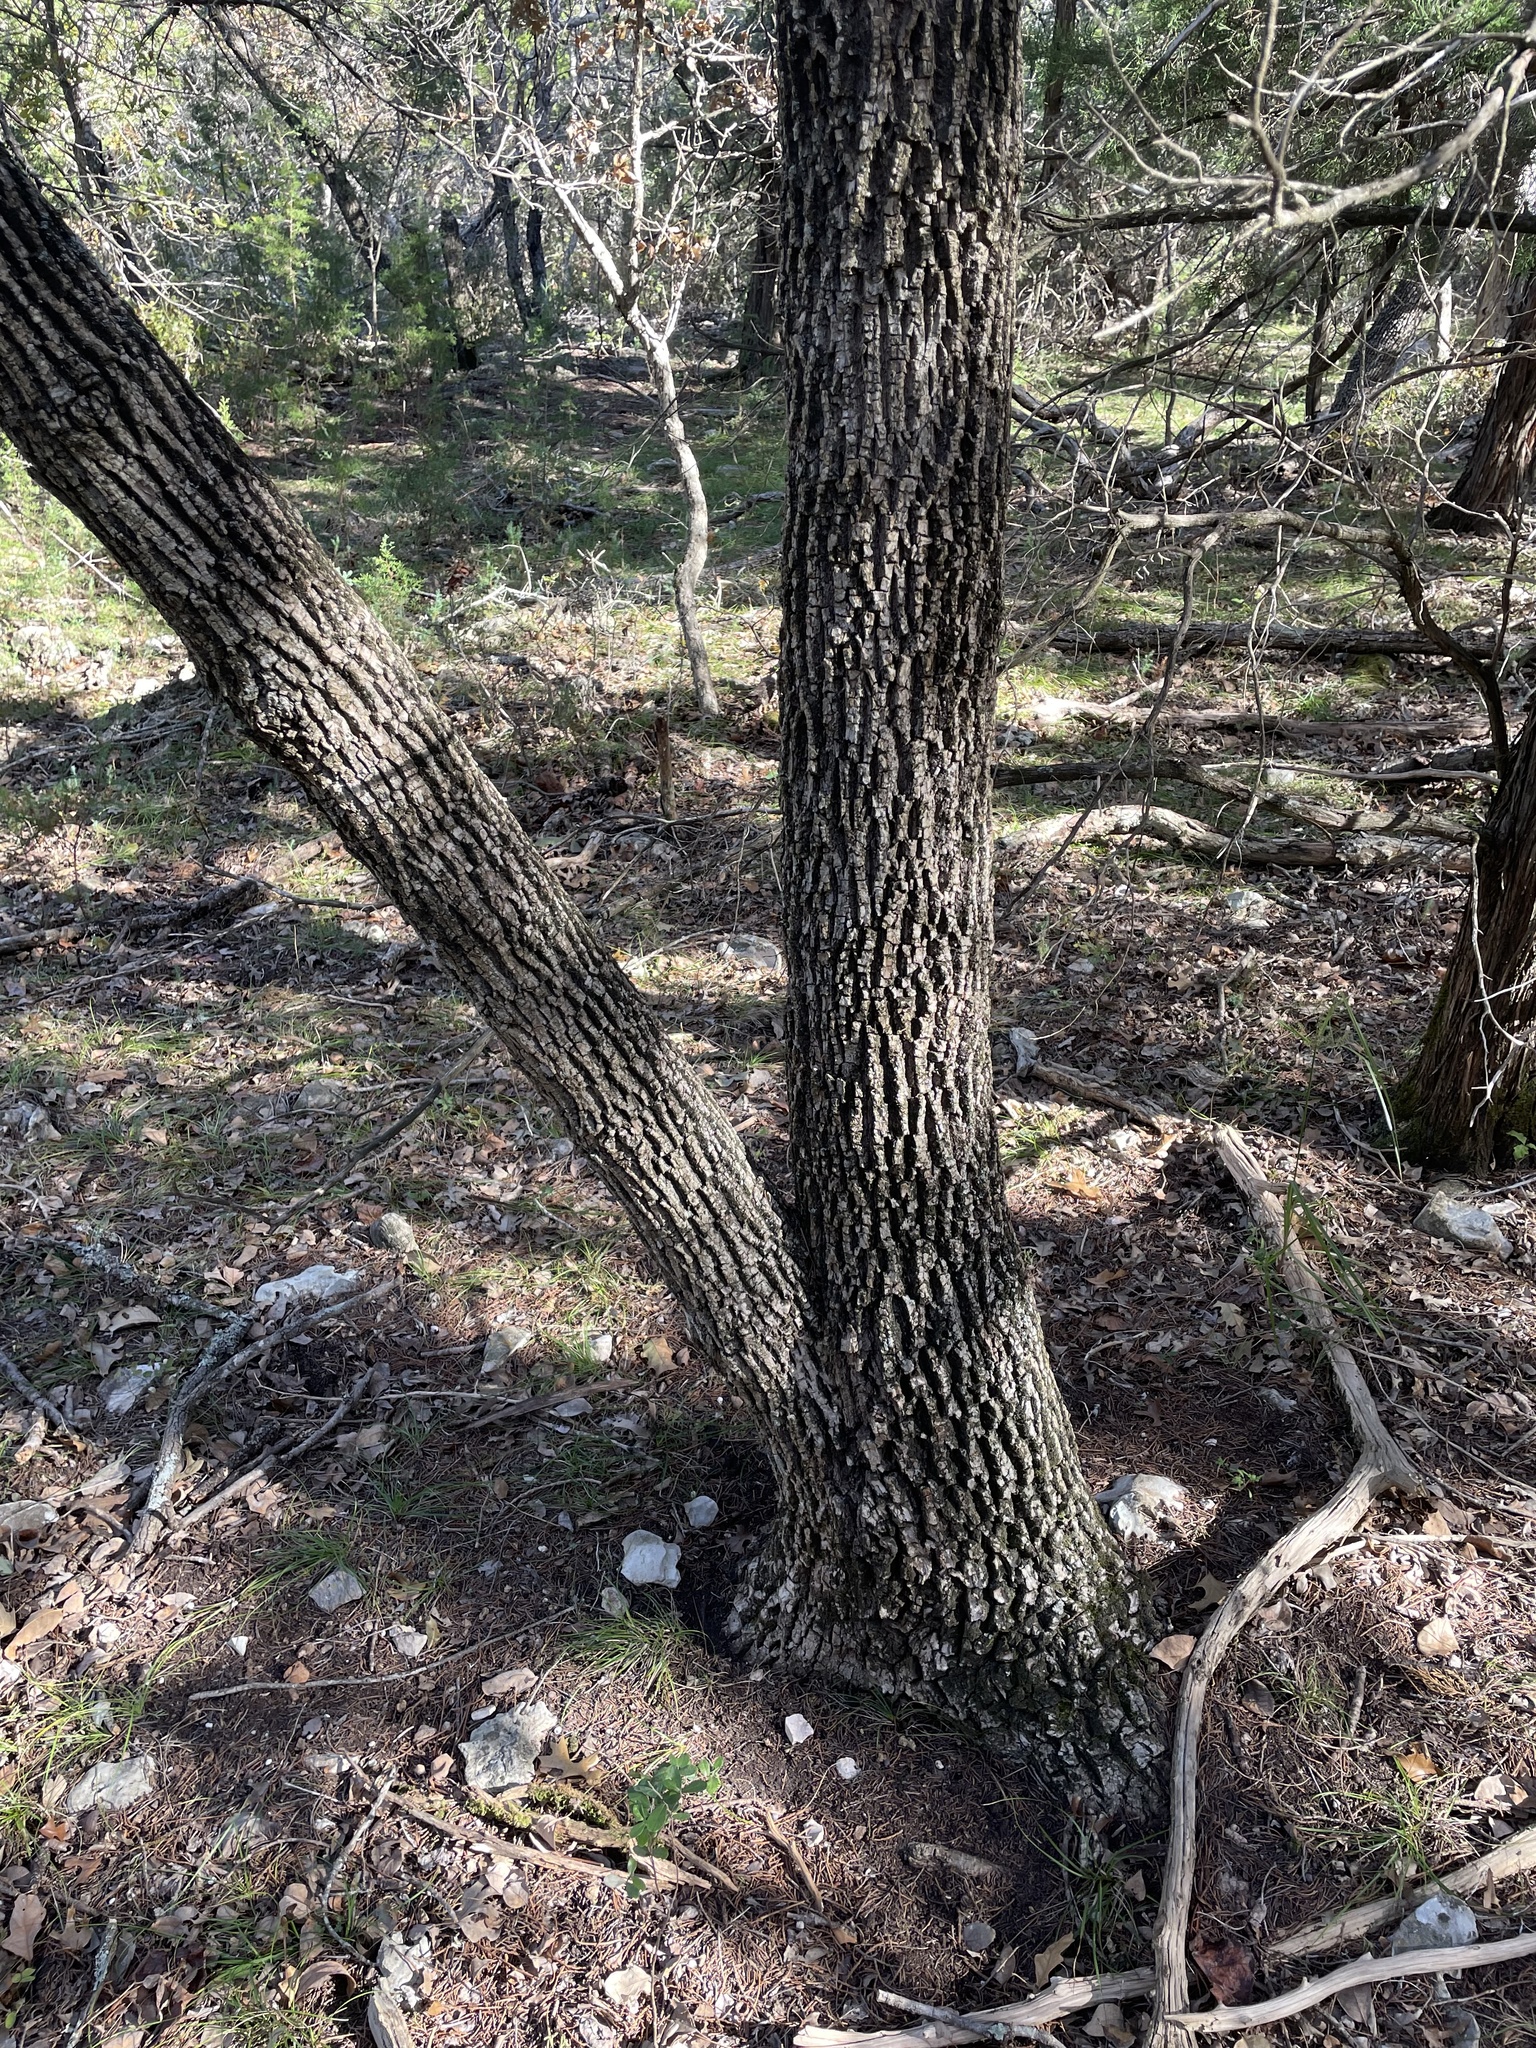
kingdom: Plantae
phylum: Tracheophyta
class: Magnoliopsida
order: Lamiales
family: Oleaceae
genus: Fraxinus
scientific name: Fraxinus albicans
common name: Texas ash
